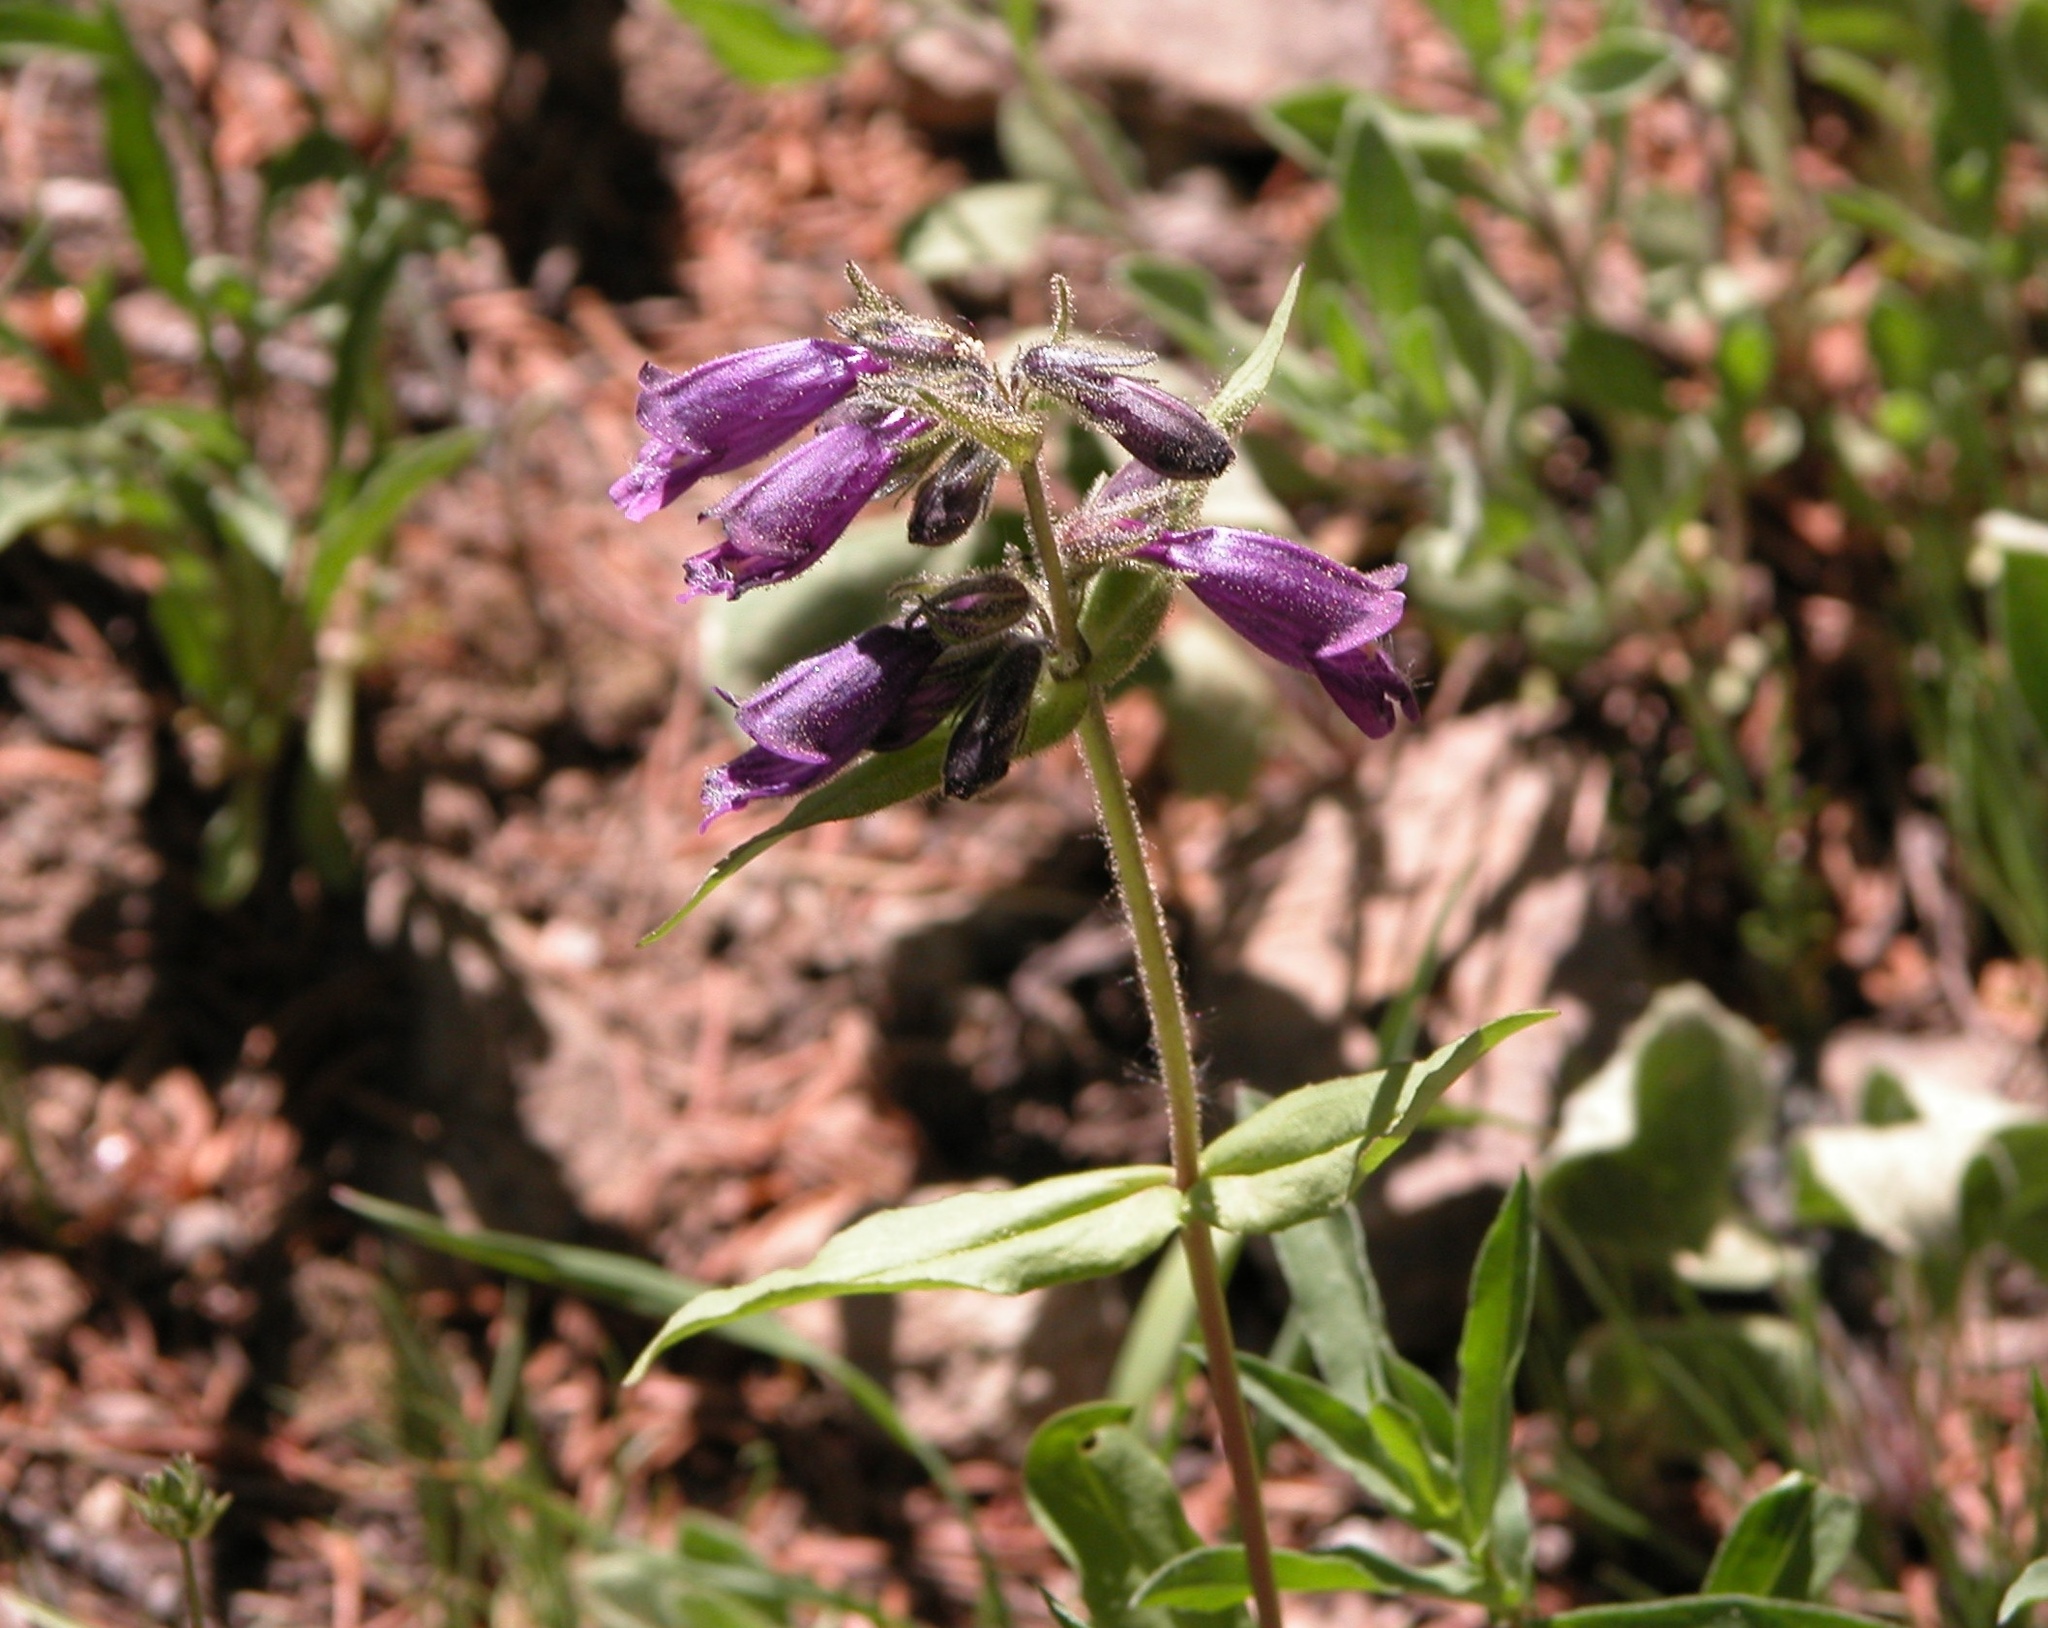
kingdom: Plantae
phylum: Tracheophyta
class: Magnoliopsida
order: Lamiales
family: Plantaginaceae
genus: Penstemon
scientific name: Penstemon whippleanus
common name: Whipple's penstemon
